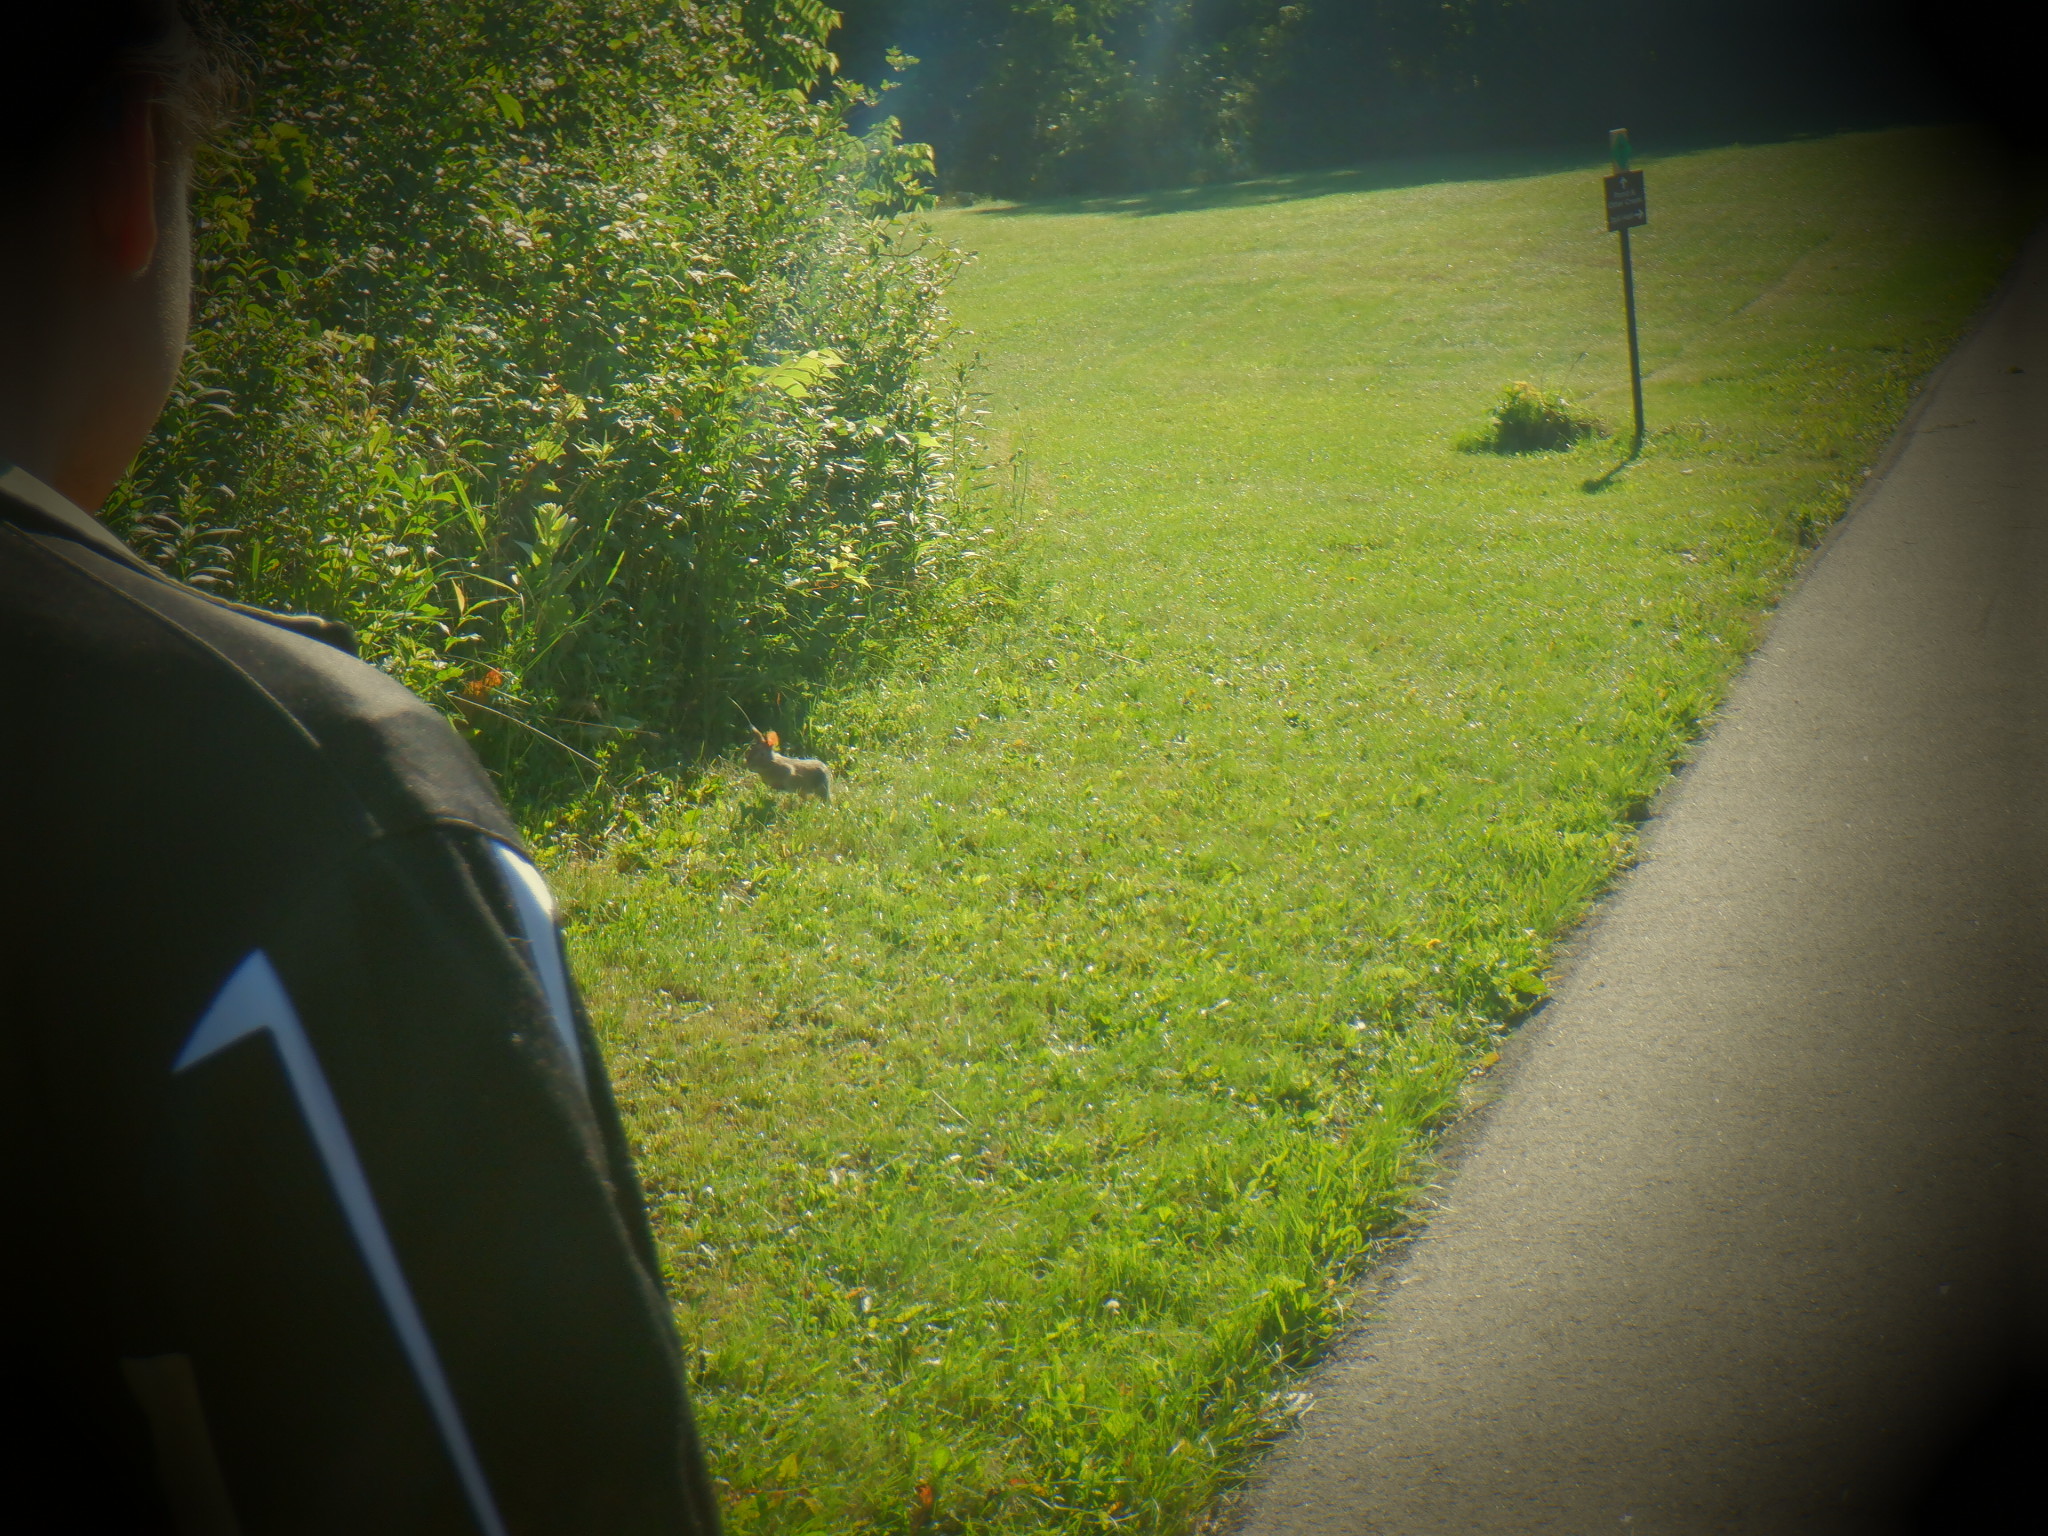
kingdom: Animalia
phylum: Chordata
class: Mammalia
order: Lagomorpha
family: Leporidae
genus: Sylvilagus
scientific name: Sylvilagus floridanus
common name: Eastern cottontail
